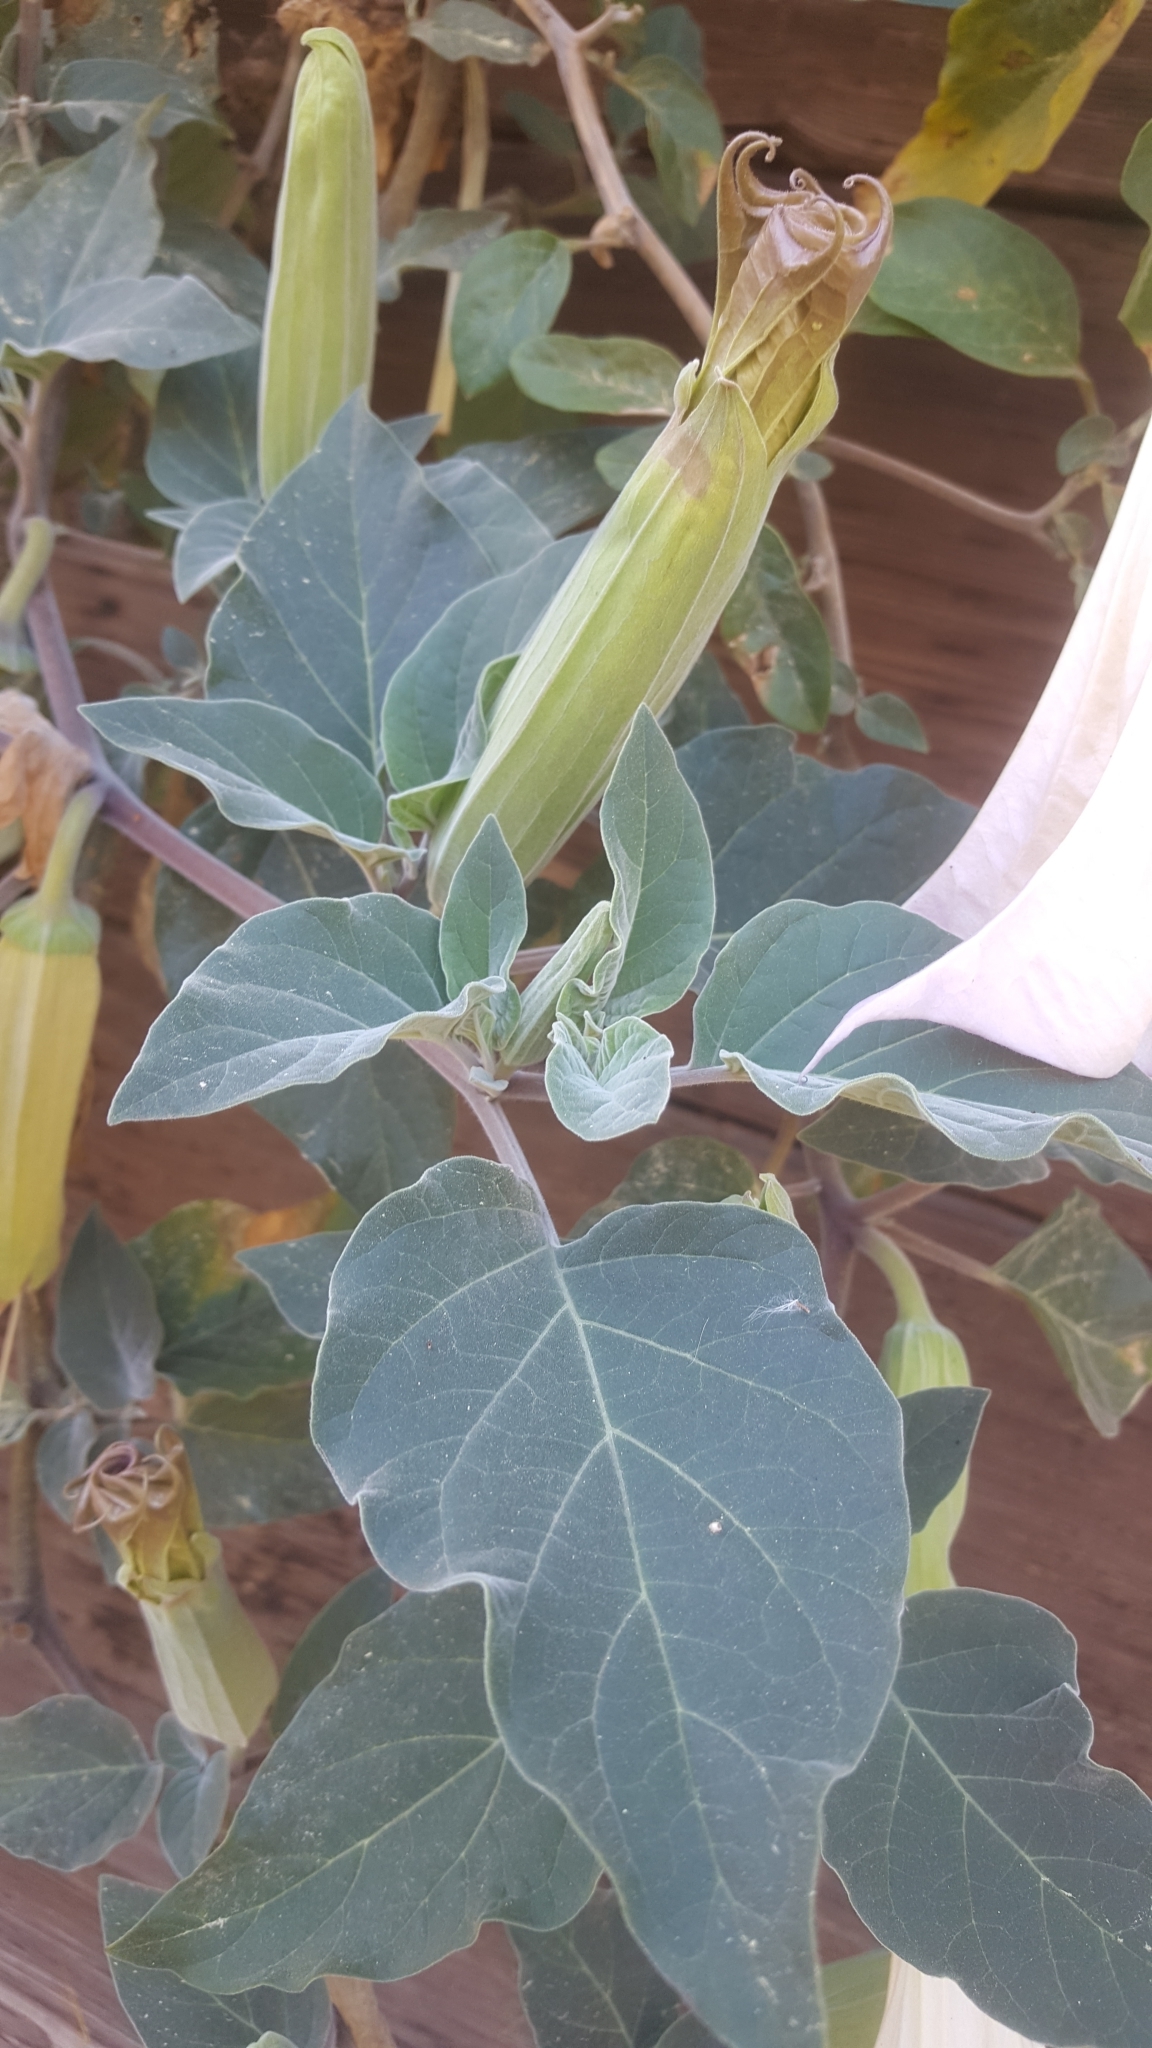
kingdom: Plantae
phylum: Tracheophyta
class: Magnoliopsida
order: Solanales
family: Solanaceae
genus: Datura
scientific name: Datura wrightii
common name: Sacred thorn-apple
